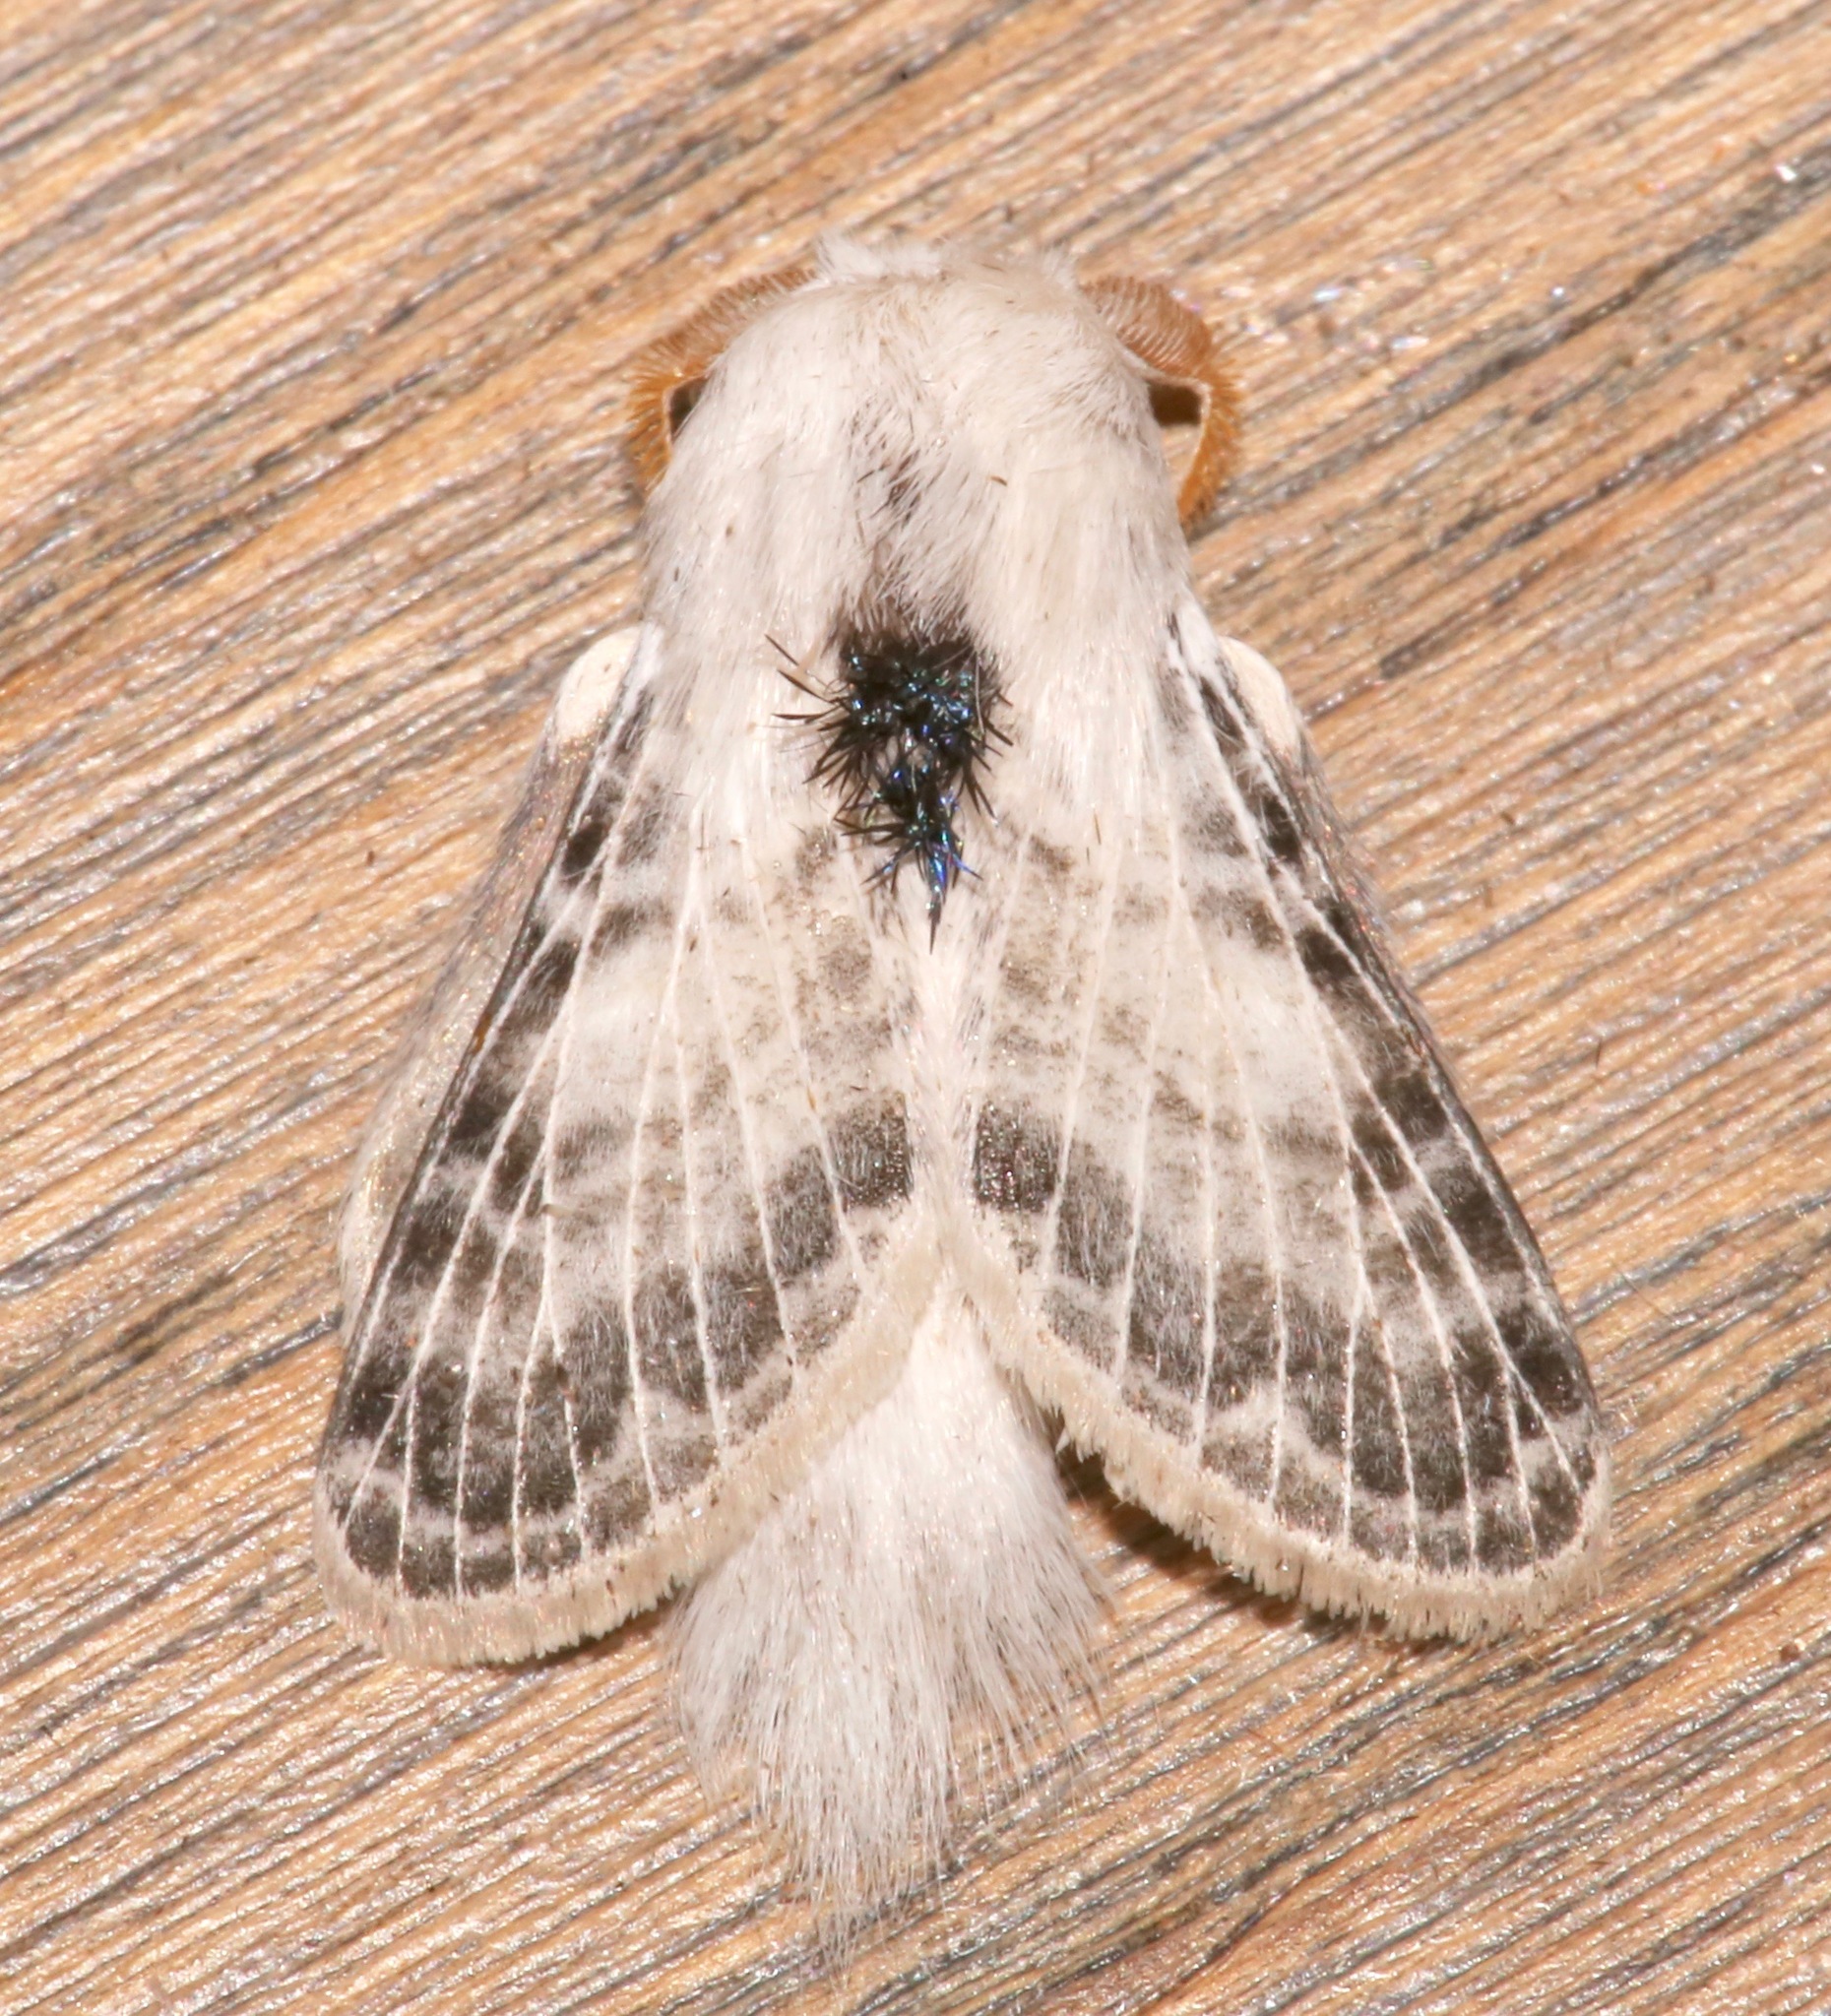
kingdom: Animalia
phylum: Arthropoda
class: Insecta
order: Lepidoptera
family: Lasiocampidae
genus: Apotolype
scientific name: Apotolype brevicrista
